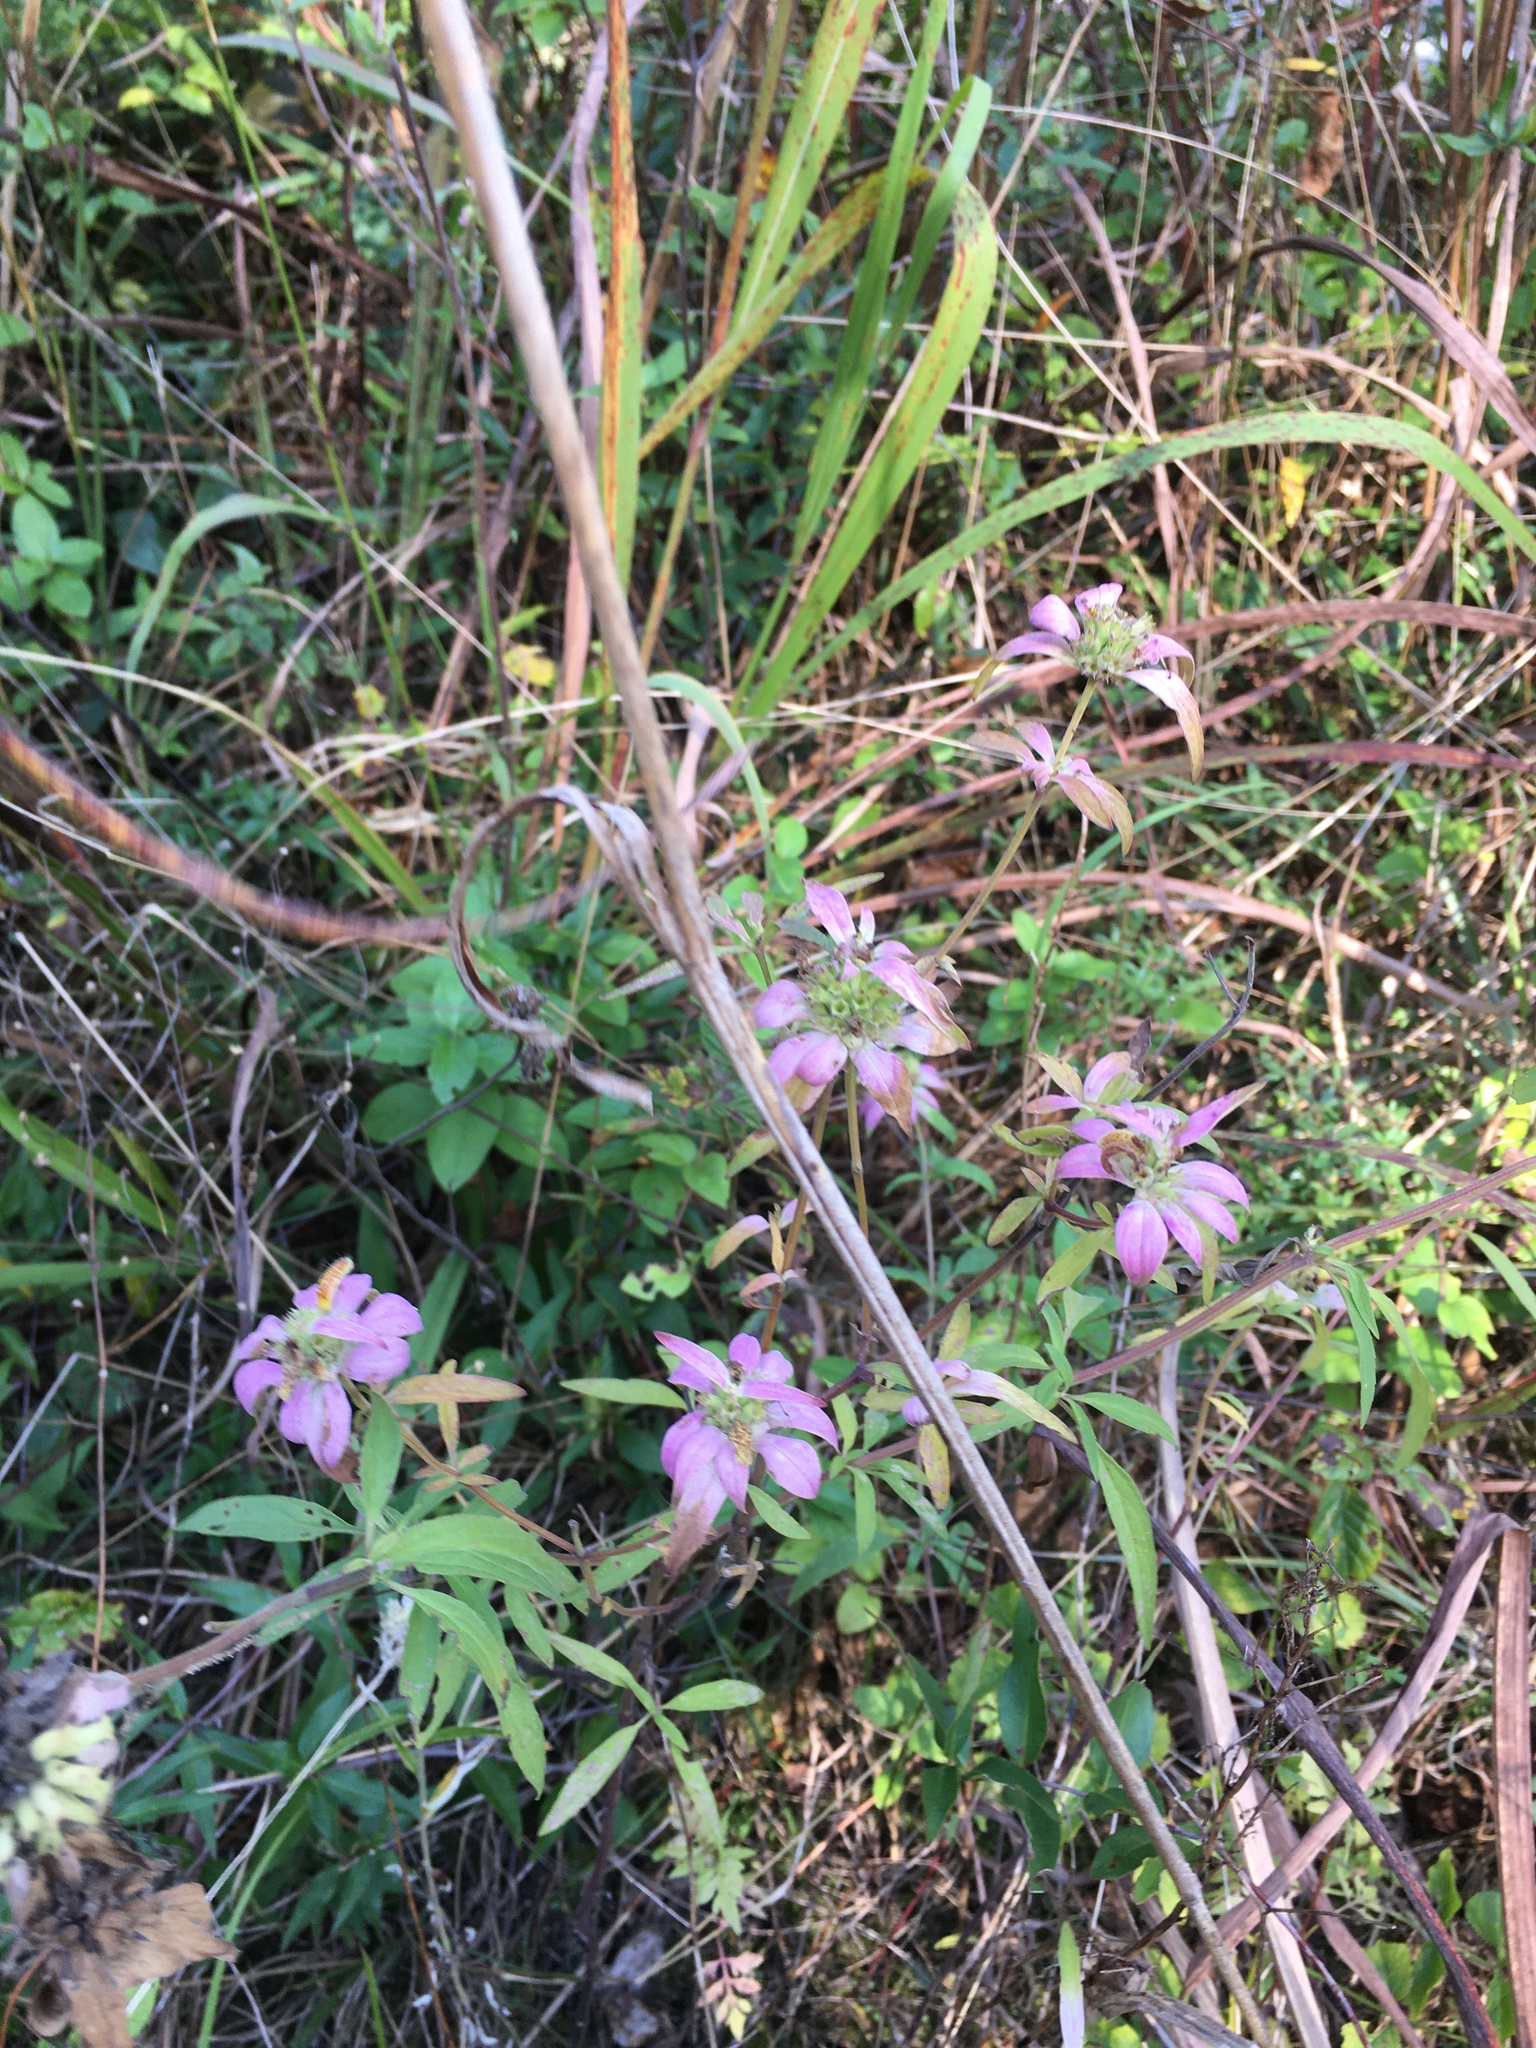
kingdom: Plantae
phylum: Tracheophyta
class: Magnoliopsida
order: Lamiales
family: Lamiaceae
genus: Monarda
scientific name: Monarda punctata
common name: Dotted monarda
